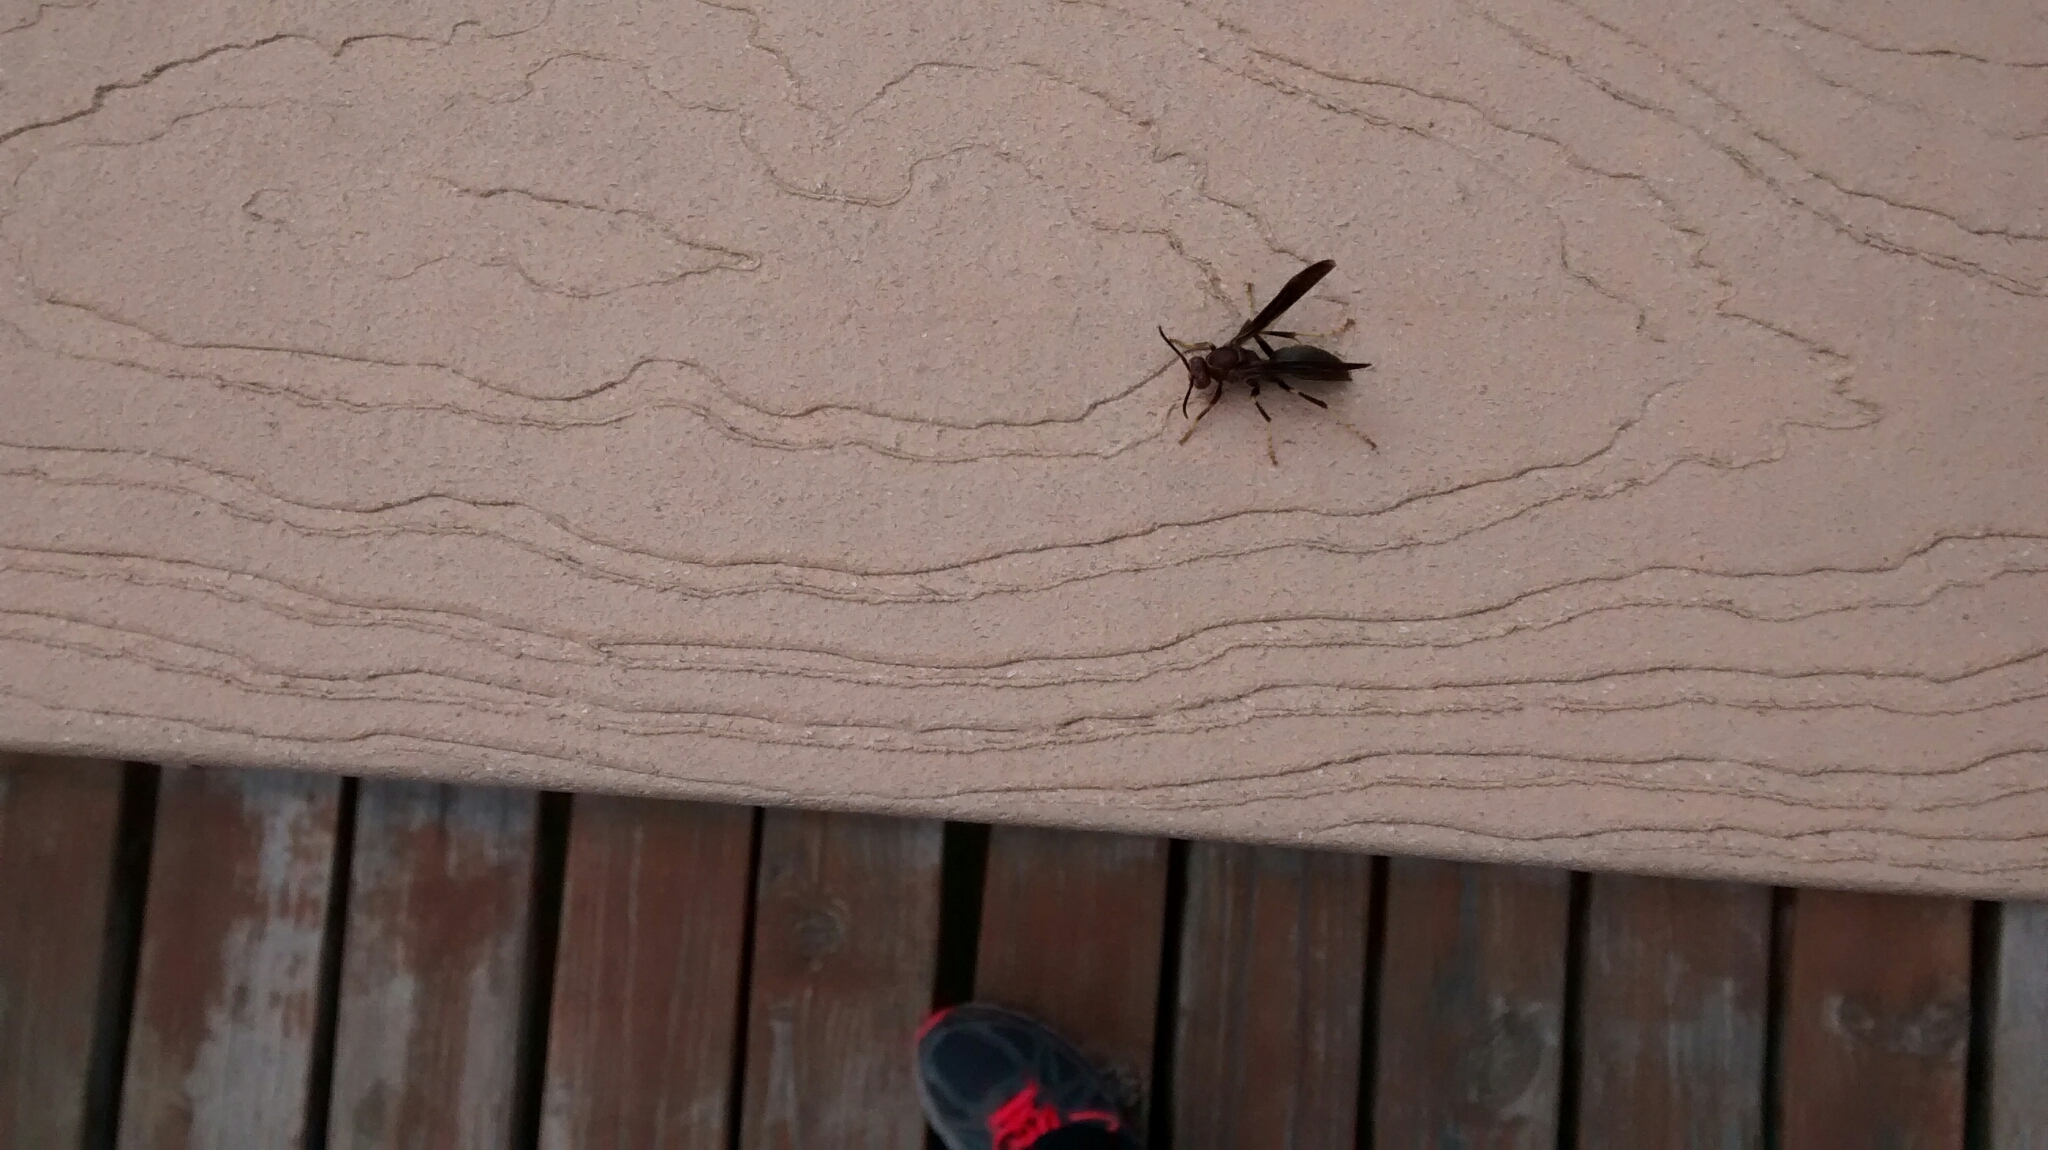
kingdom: Animalia
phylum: Arthropoda
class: Insecta
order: Hymenoptera
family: Eumenidae
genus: Polistes
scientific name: Polistes metricus
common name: Metric paper wasp
